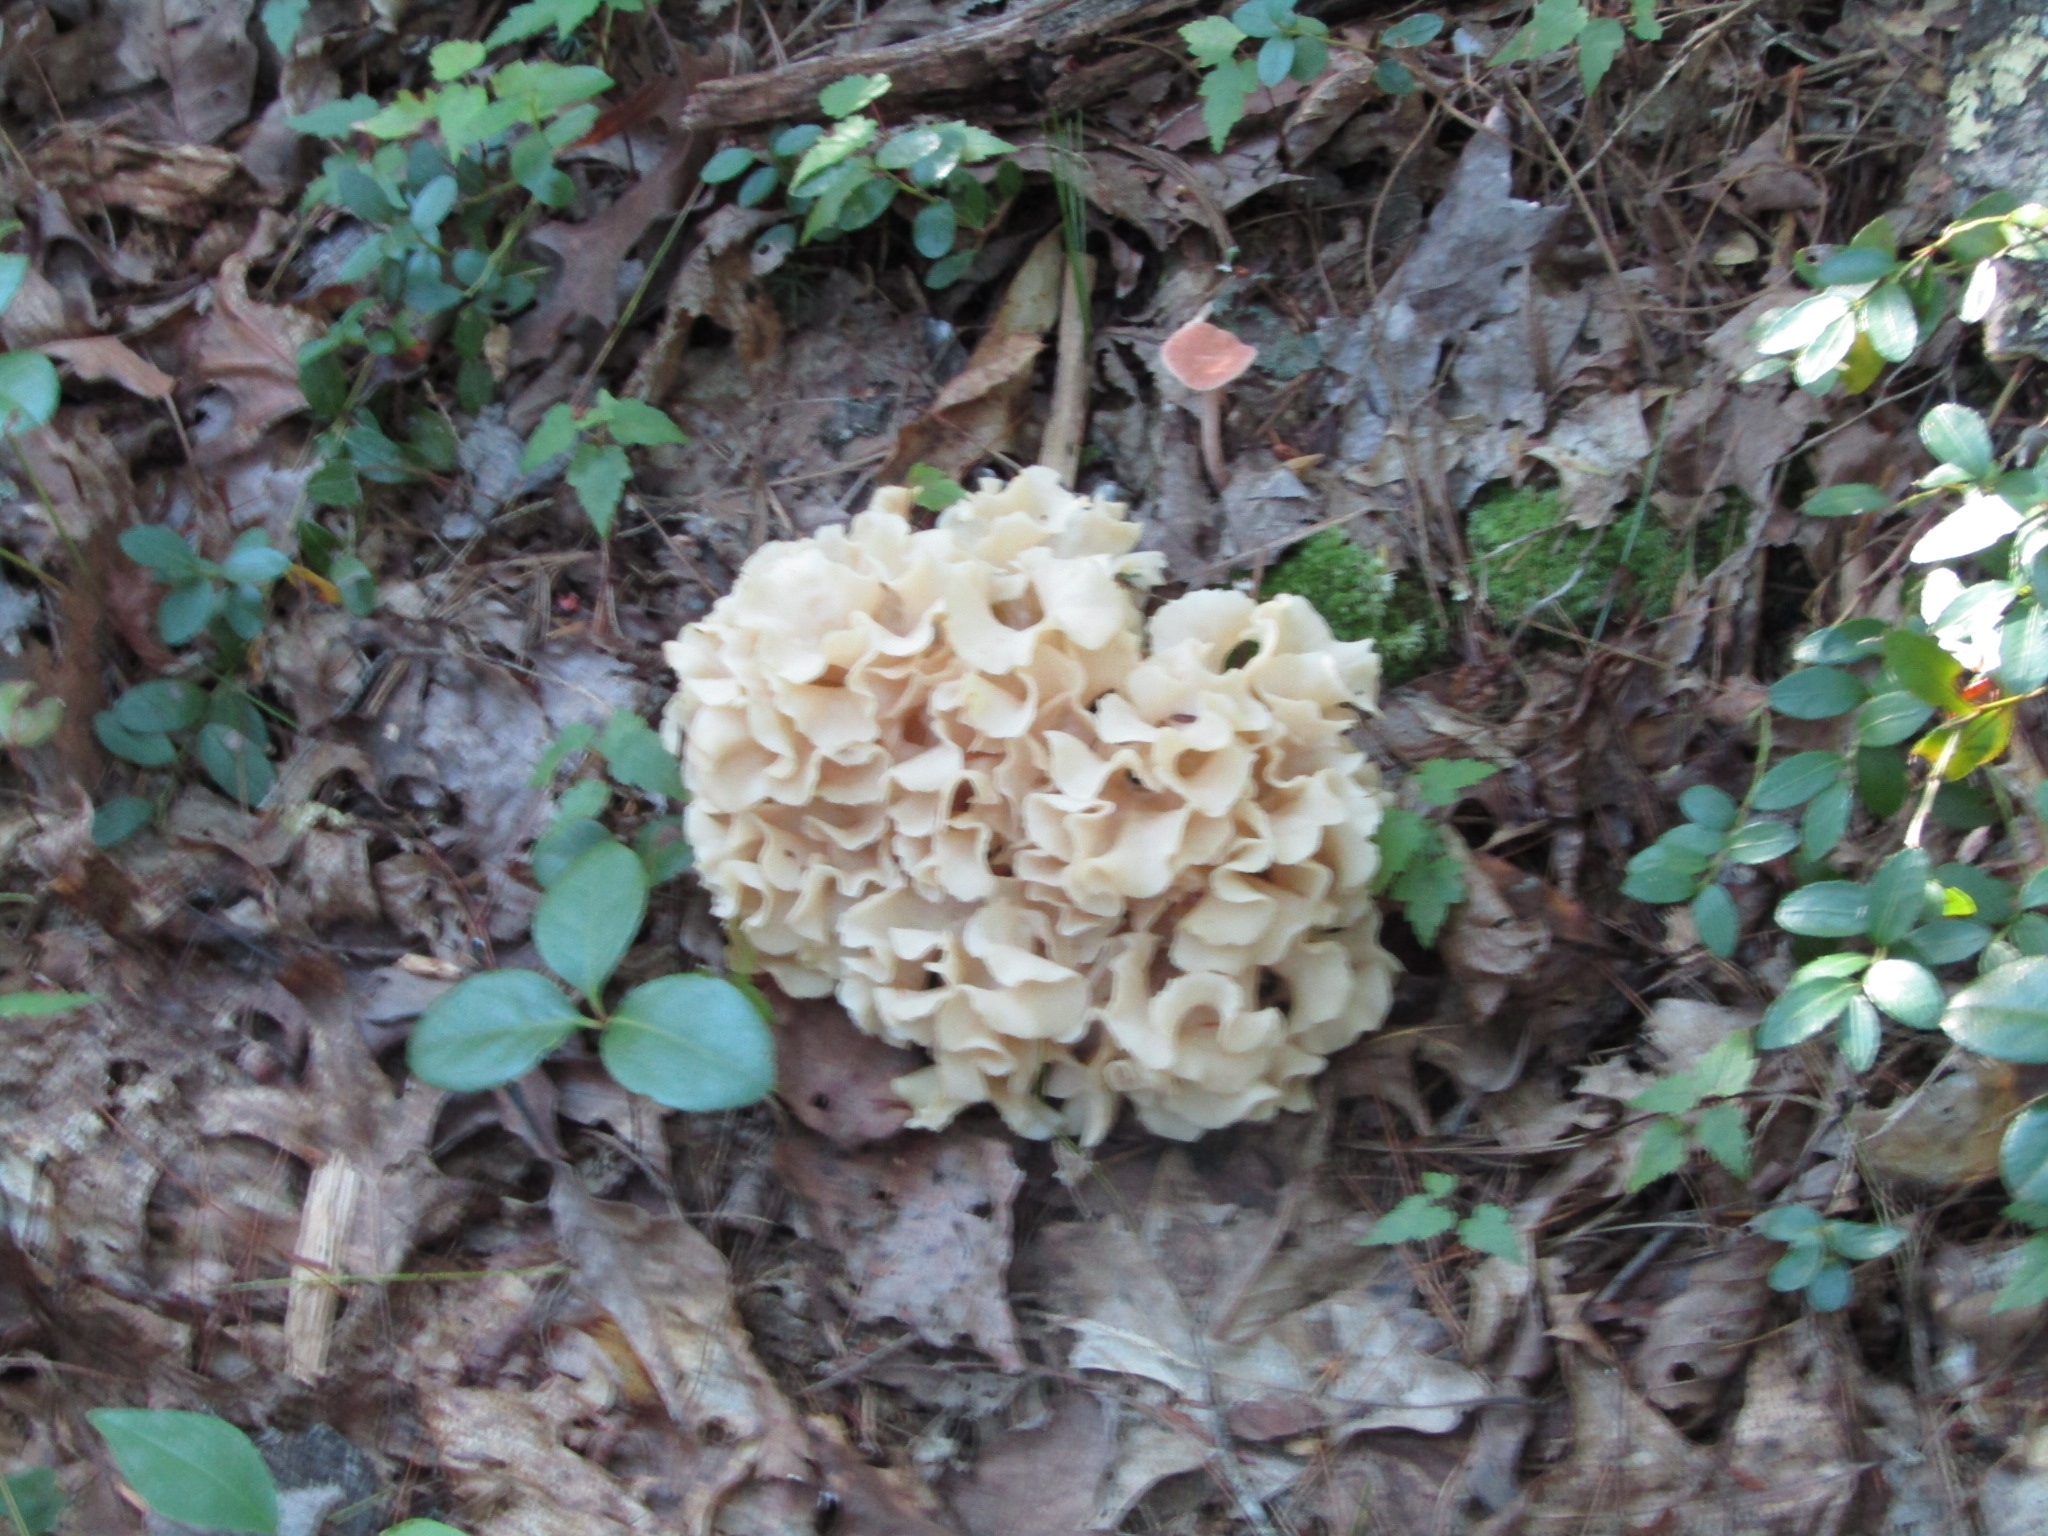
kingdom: Fungi
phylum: Basidiomycota
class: Agaricomycetes
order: Polyporales
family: Sparassidaceae
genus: Sparassis
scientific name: Sparassis americana
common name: American cauliflower mushroom
